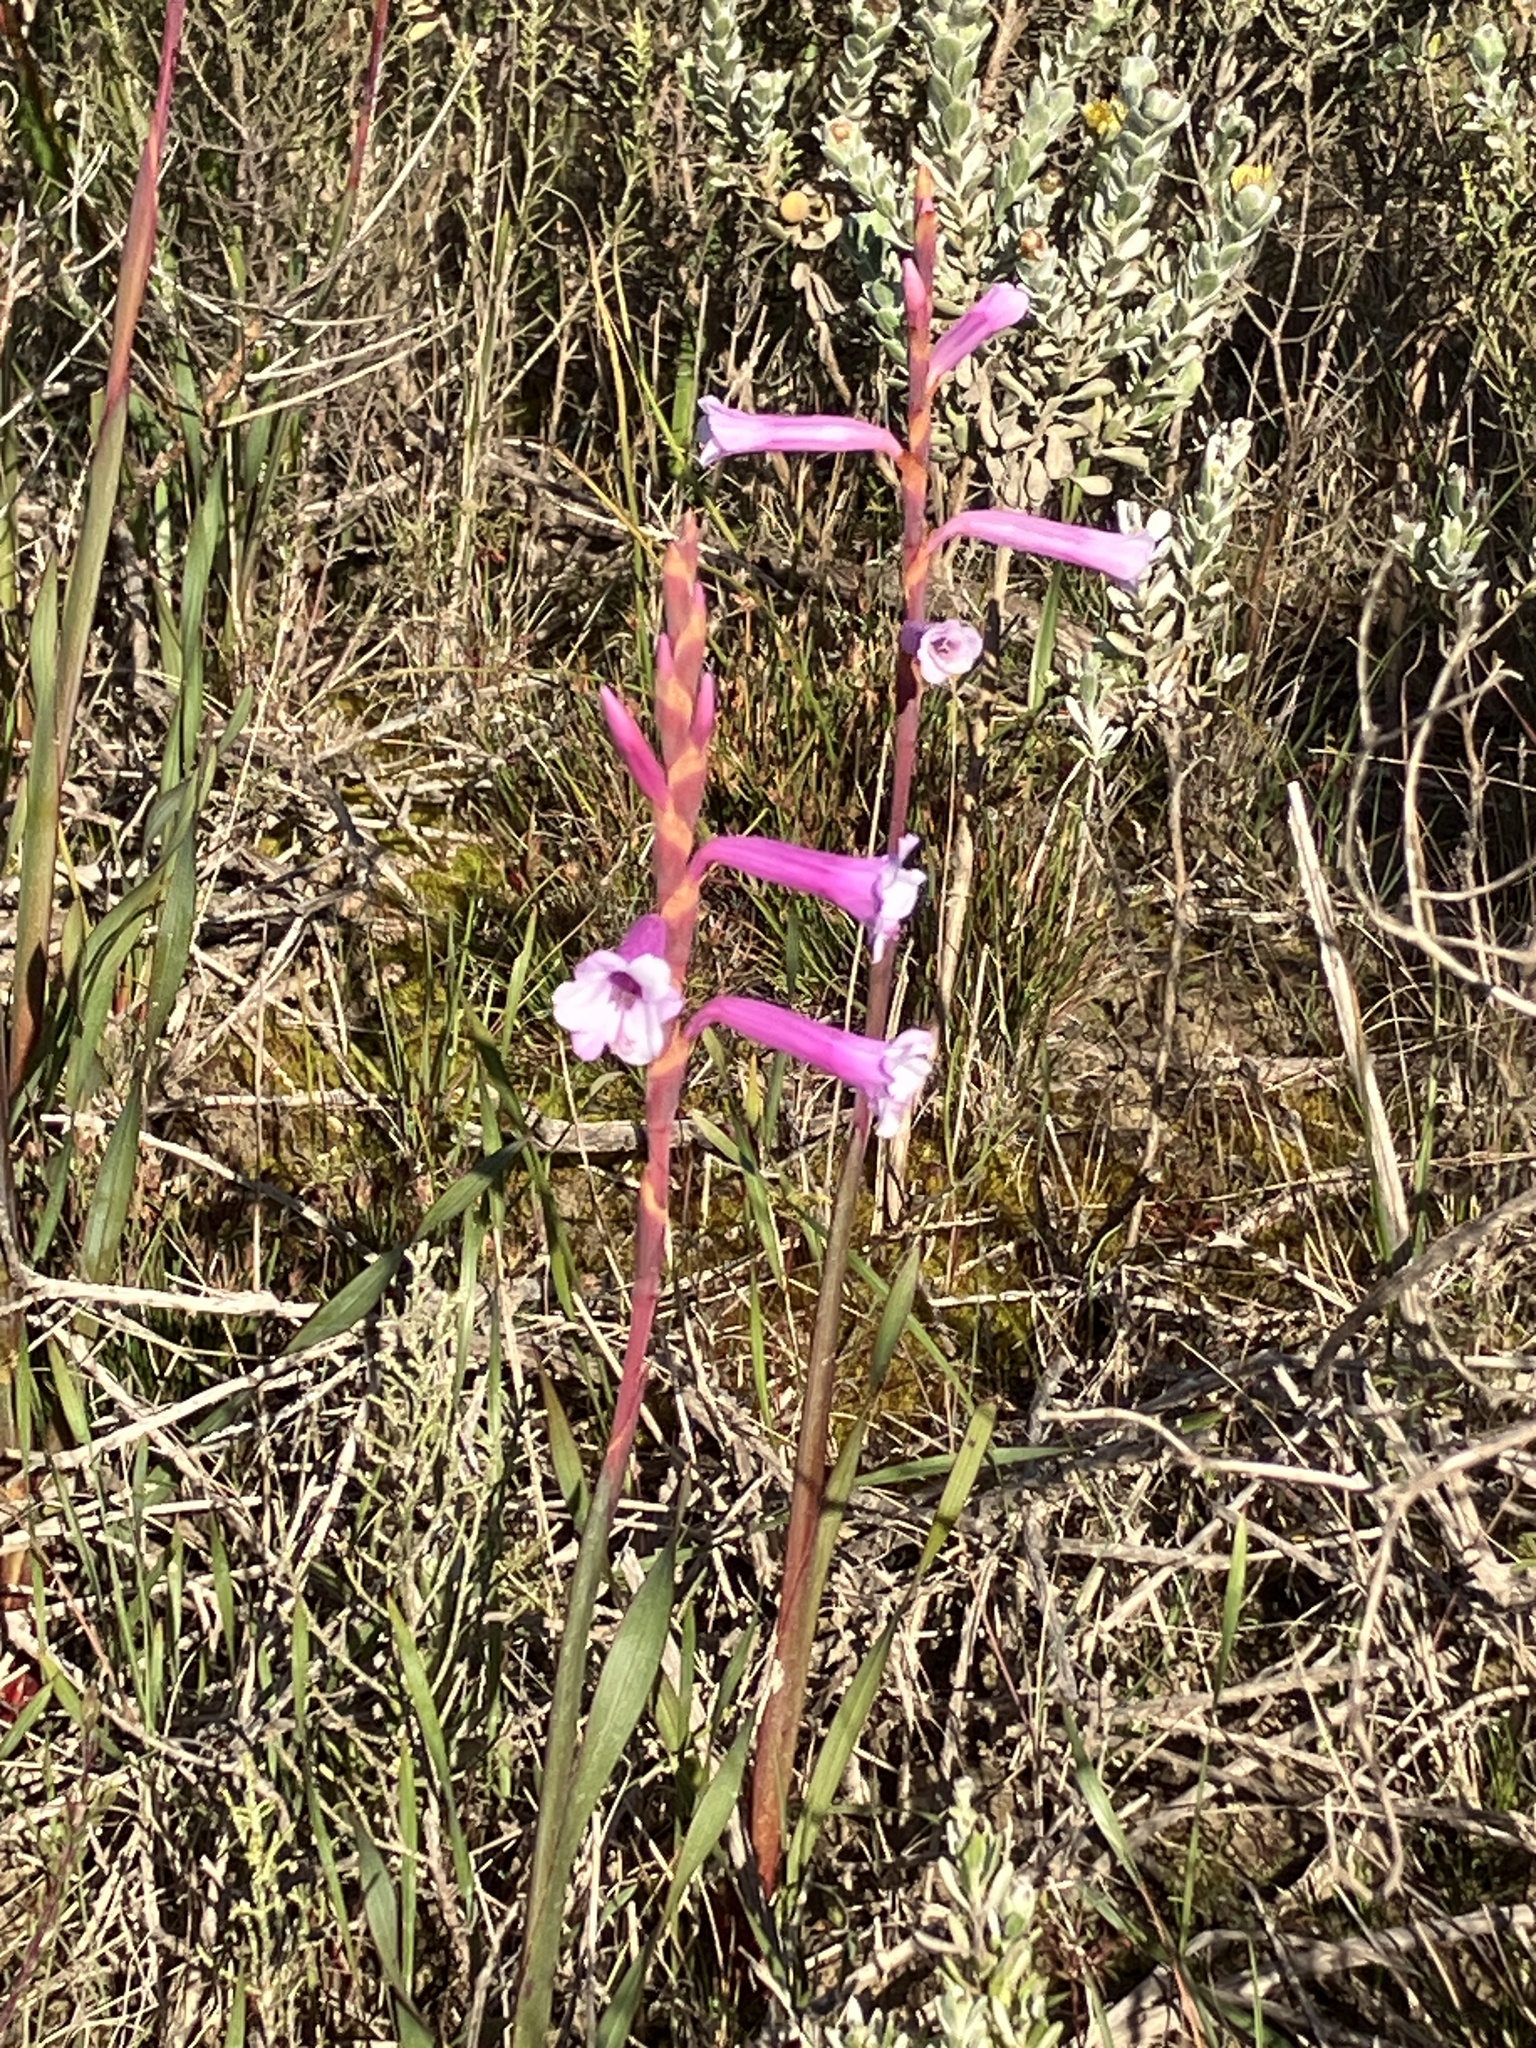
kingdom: Plantae
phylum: Tracheophyta
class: Liliopsida
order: Asparagales
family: Iridaceae
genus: Watsonia
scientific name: Watsonia aletroides
